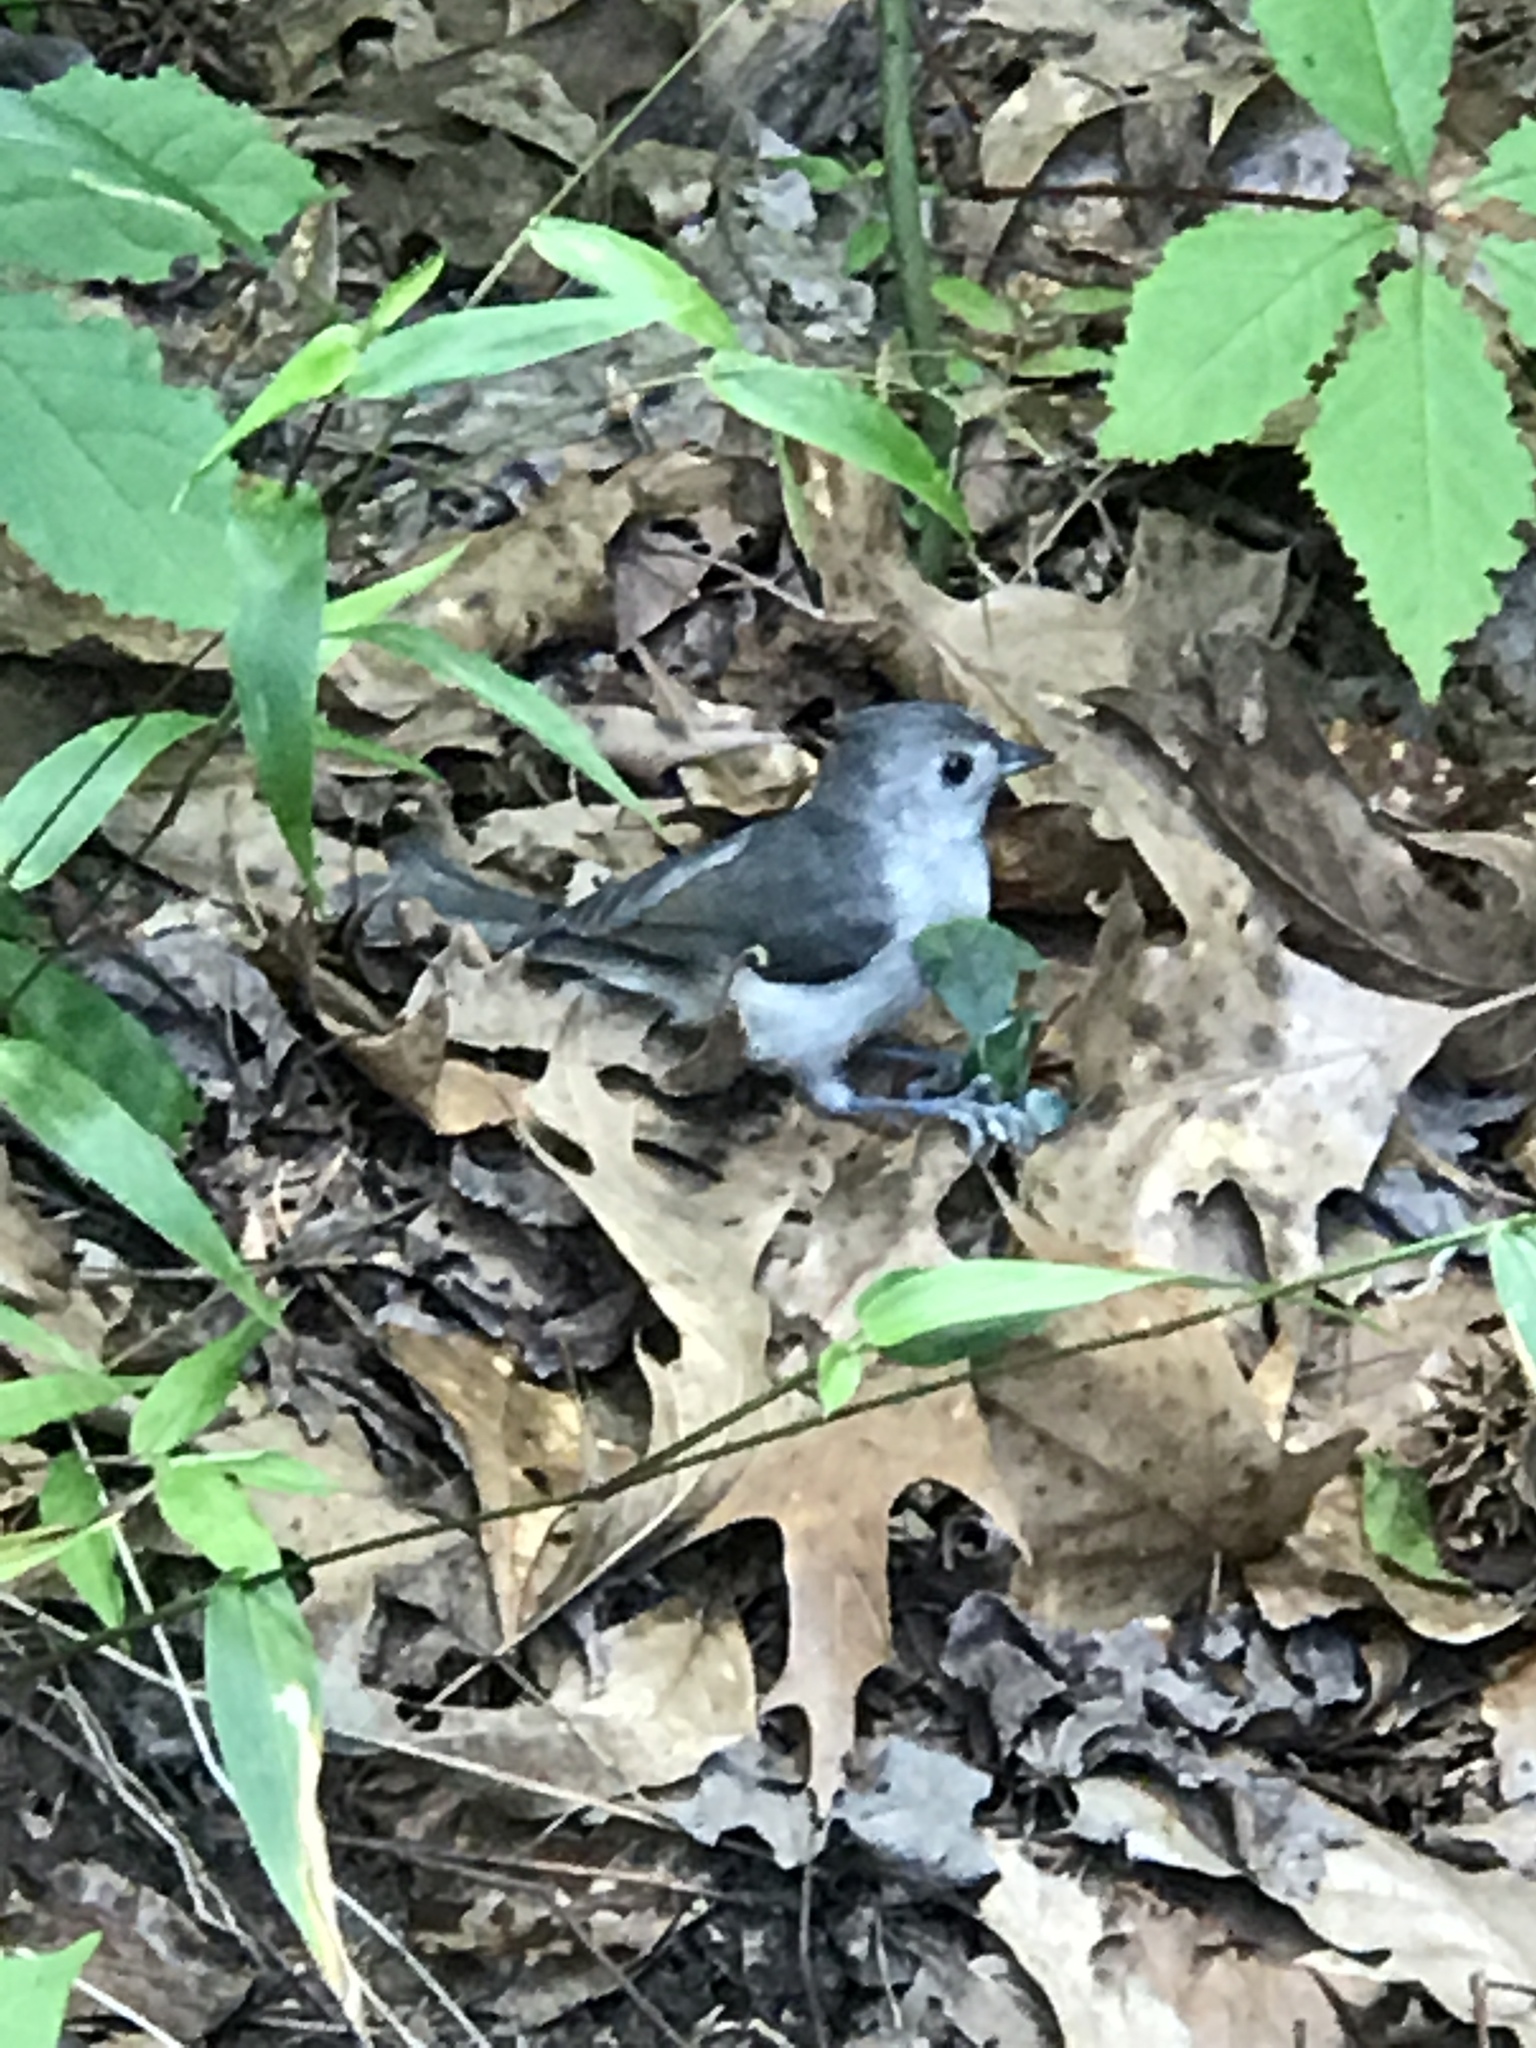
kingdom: Animalia
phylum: Chordata
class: Aves
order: Passeriformes
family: Paridae
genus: Baeolophus
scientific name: Baeolophus bicolor
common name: Tufted titmouse
